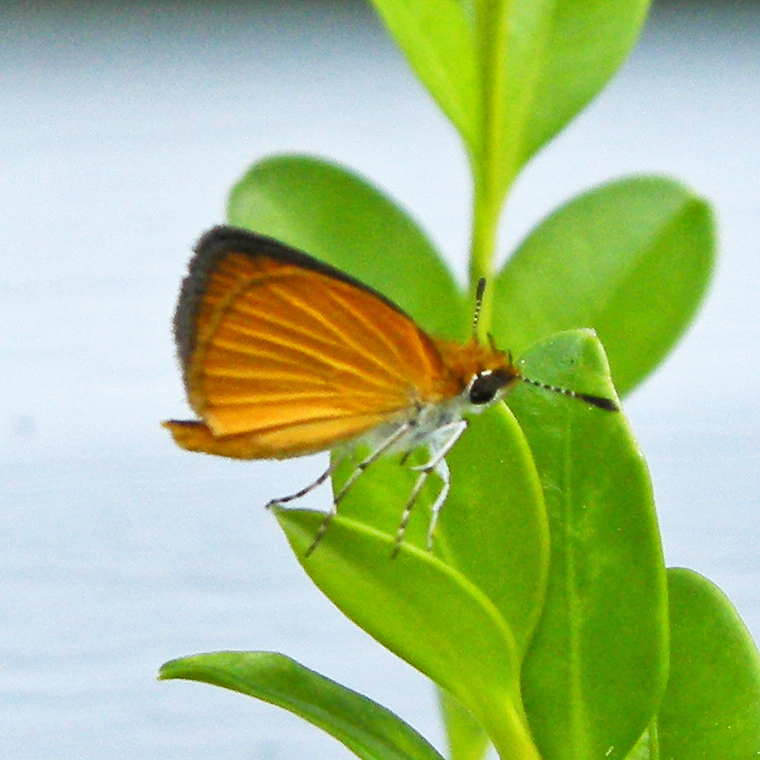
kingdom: Animalia
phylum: Arthropoda
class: Insecta
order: Lepidoptera
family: Hesperiidae
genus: Ancyloxypha
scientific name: Ancyloxypha numitor
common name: Least skipper
